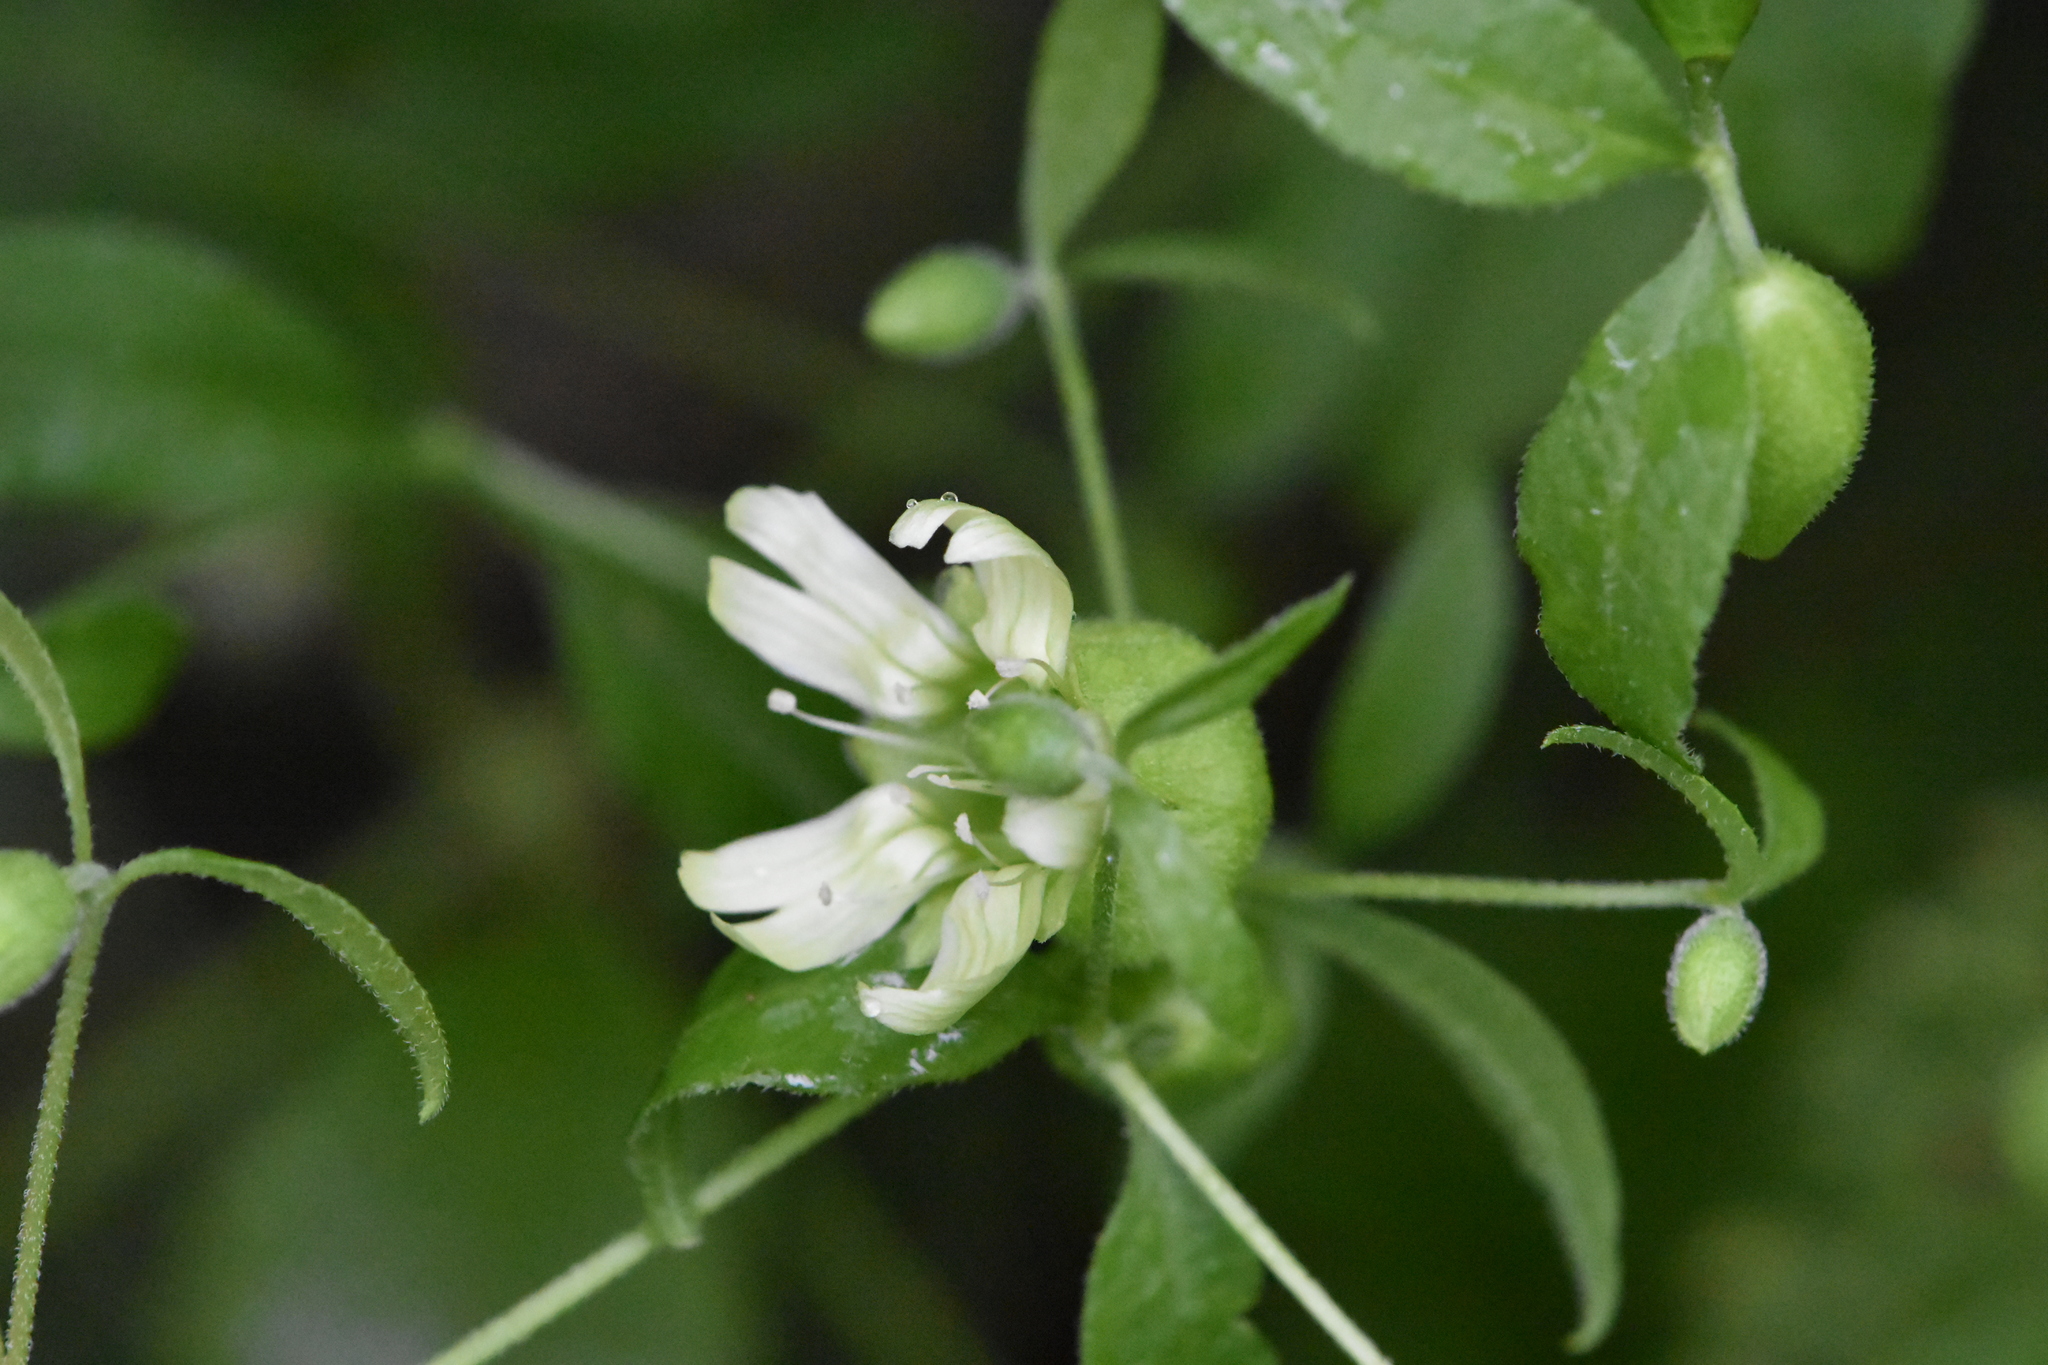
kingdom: Plantae
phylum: Tracheophyta
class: Magnoliopsida
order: Caryophyllales
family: Caryophyllaceae
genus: Silene
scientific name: Silene baccifera
